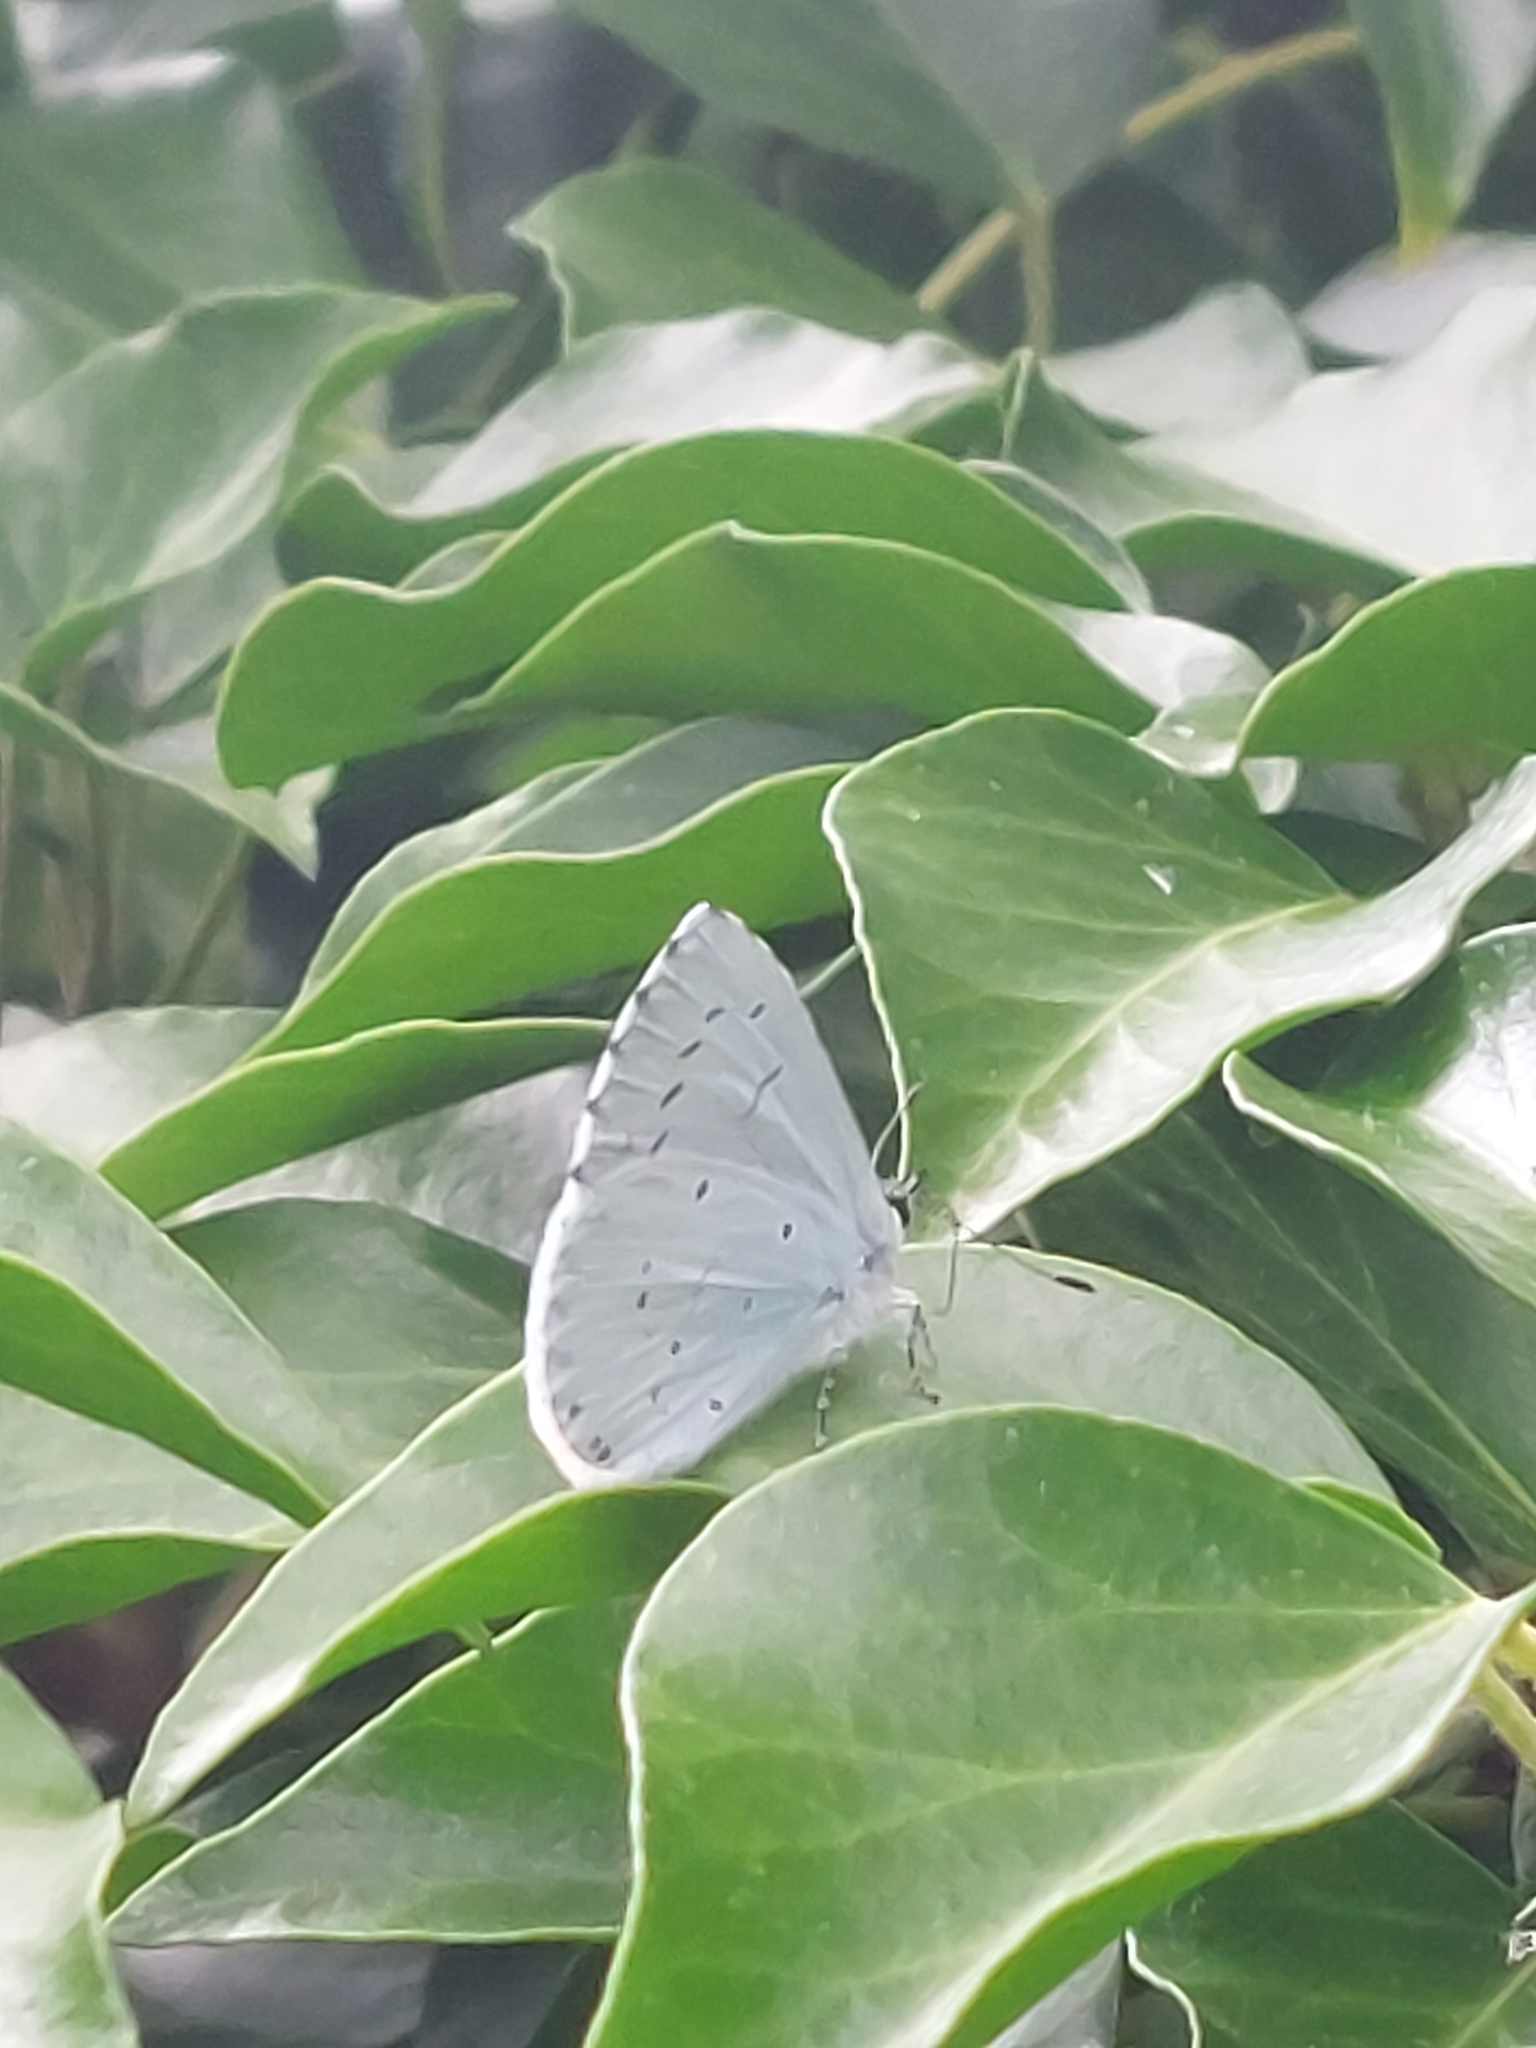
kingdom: Animalia
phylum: Arthropoda
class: Insecta
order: Lepidoptera
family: Lycaenidae
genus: Celastrina
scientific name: Celastrina argiolus
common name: Holly blue
